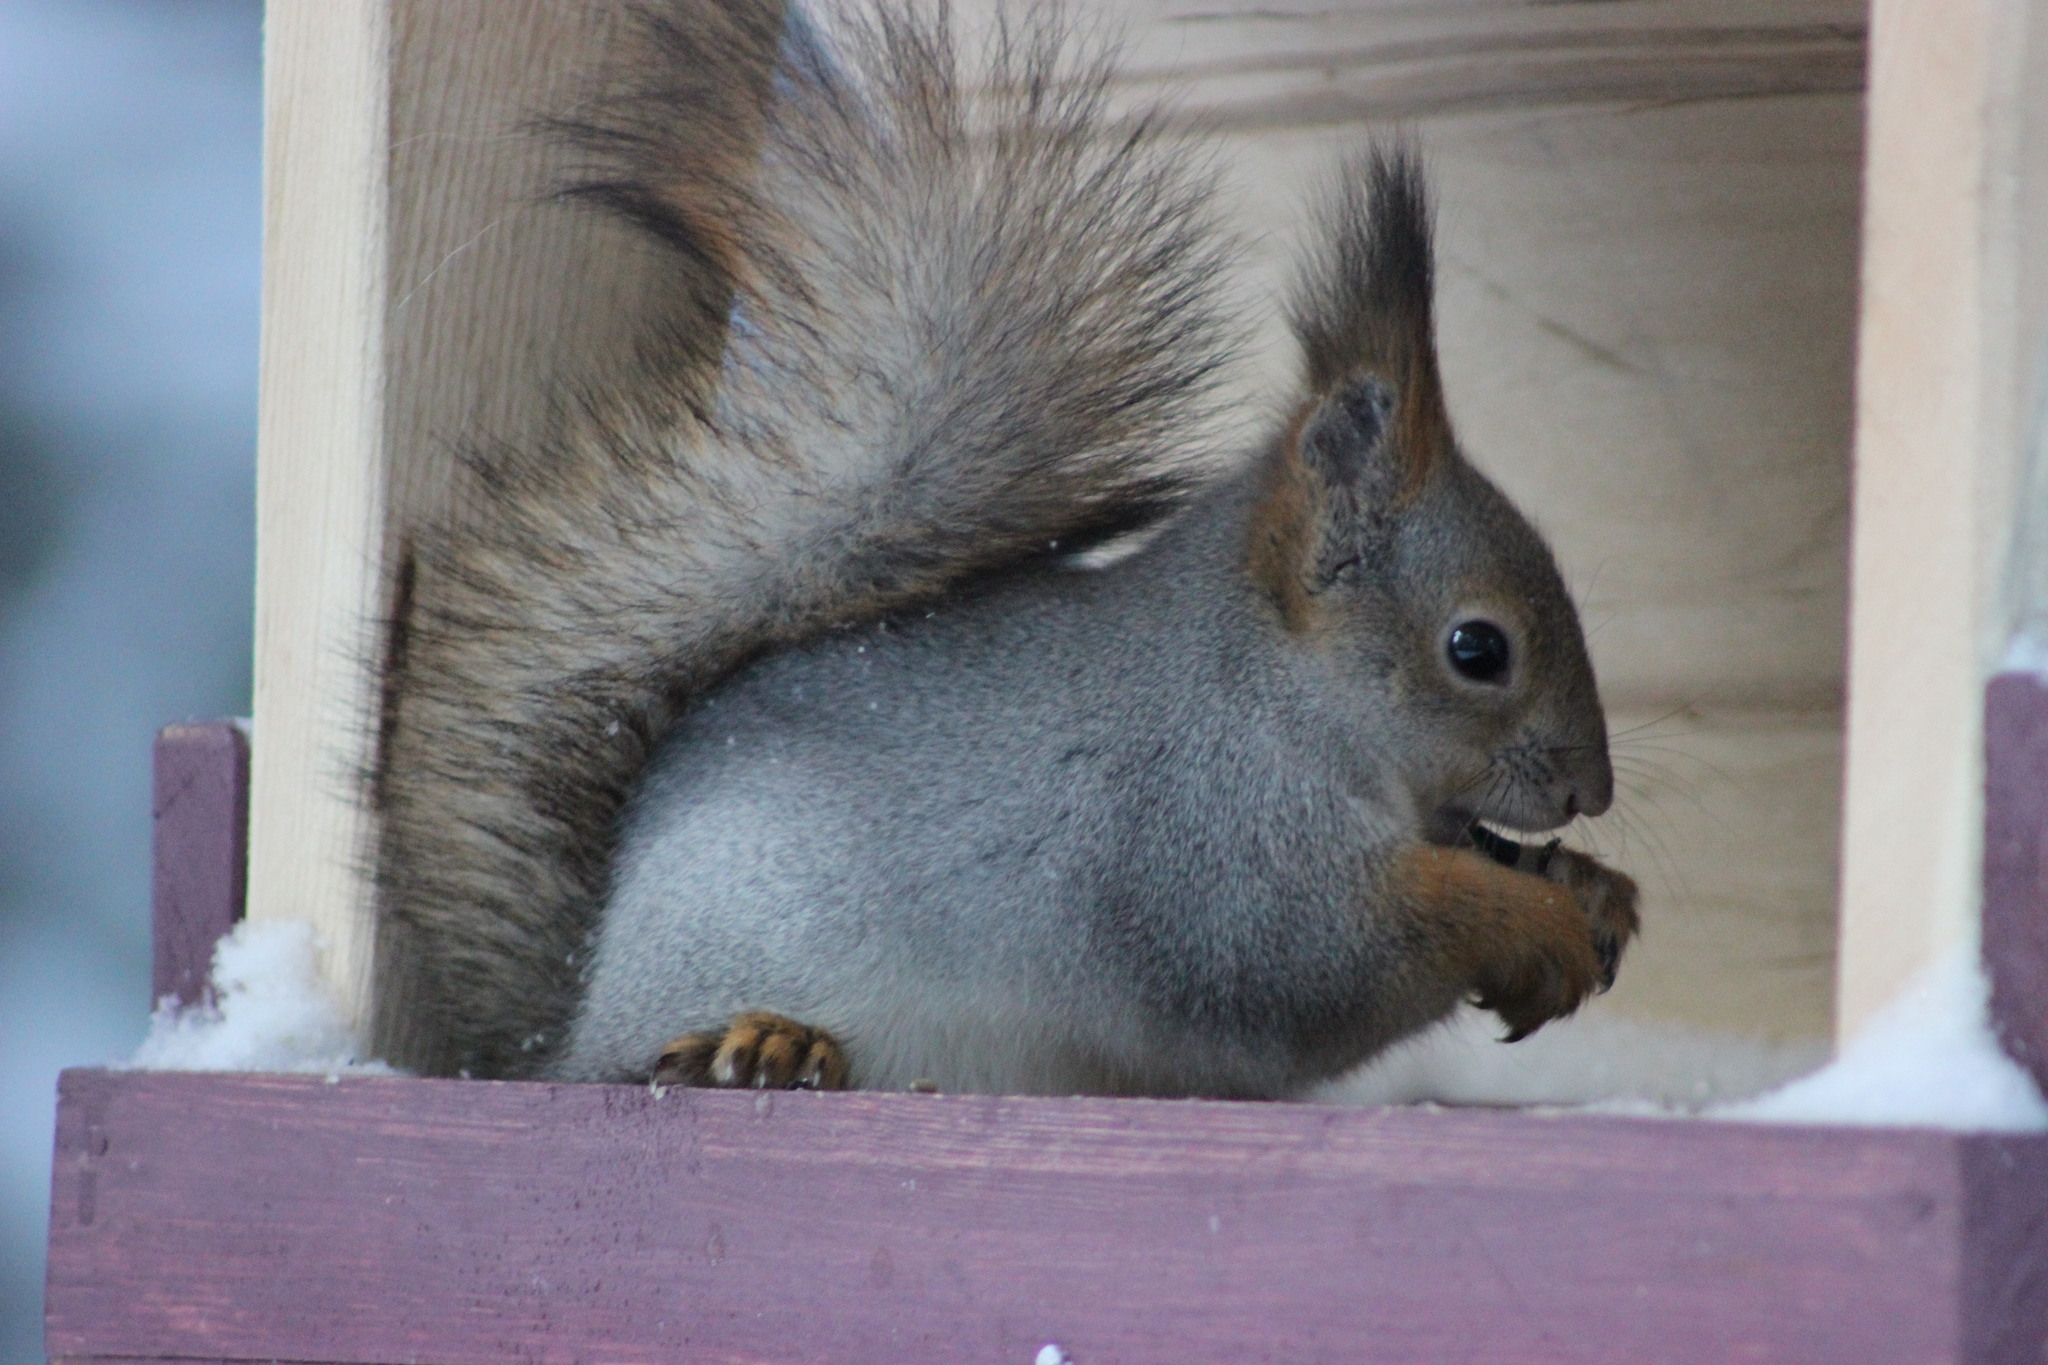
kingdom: Animalia
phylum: Chordata
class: Mammalia
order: Rodentia
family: Sciuridae
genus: Sciurus
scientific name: Sciurus vulgaris
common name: Eurasian red squirrel
